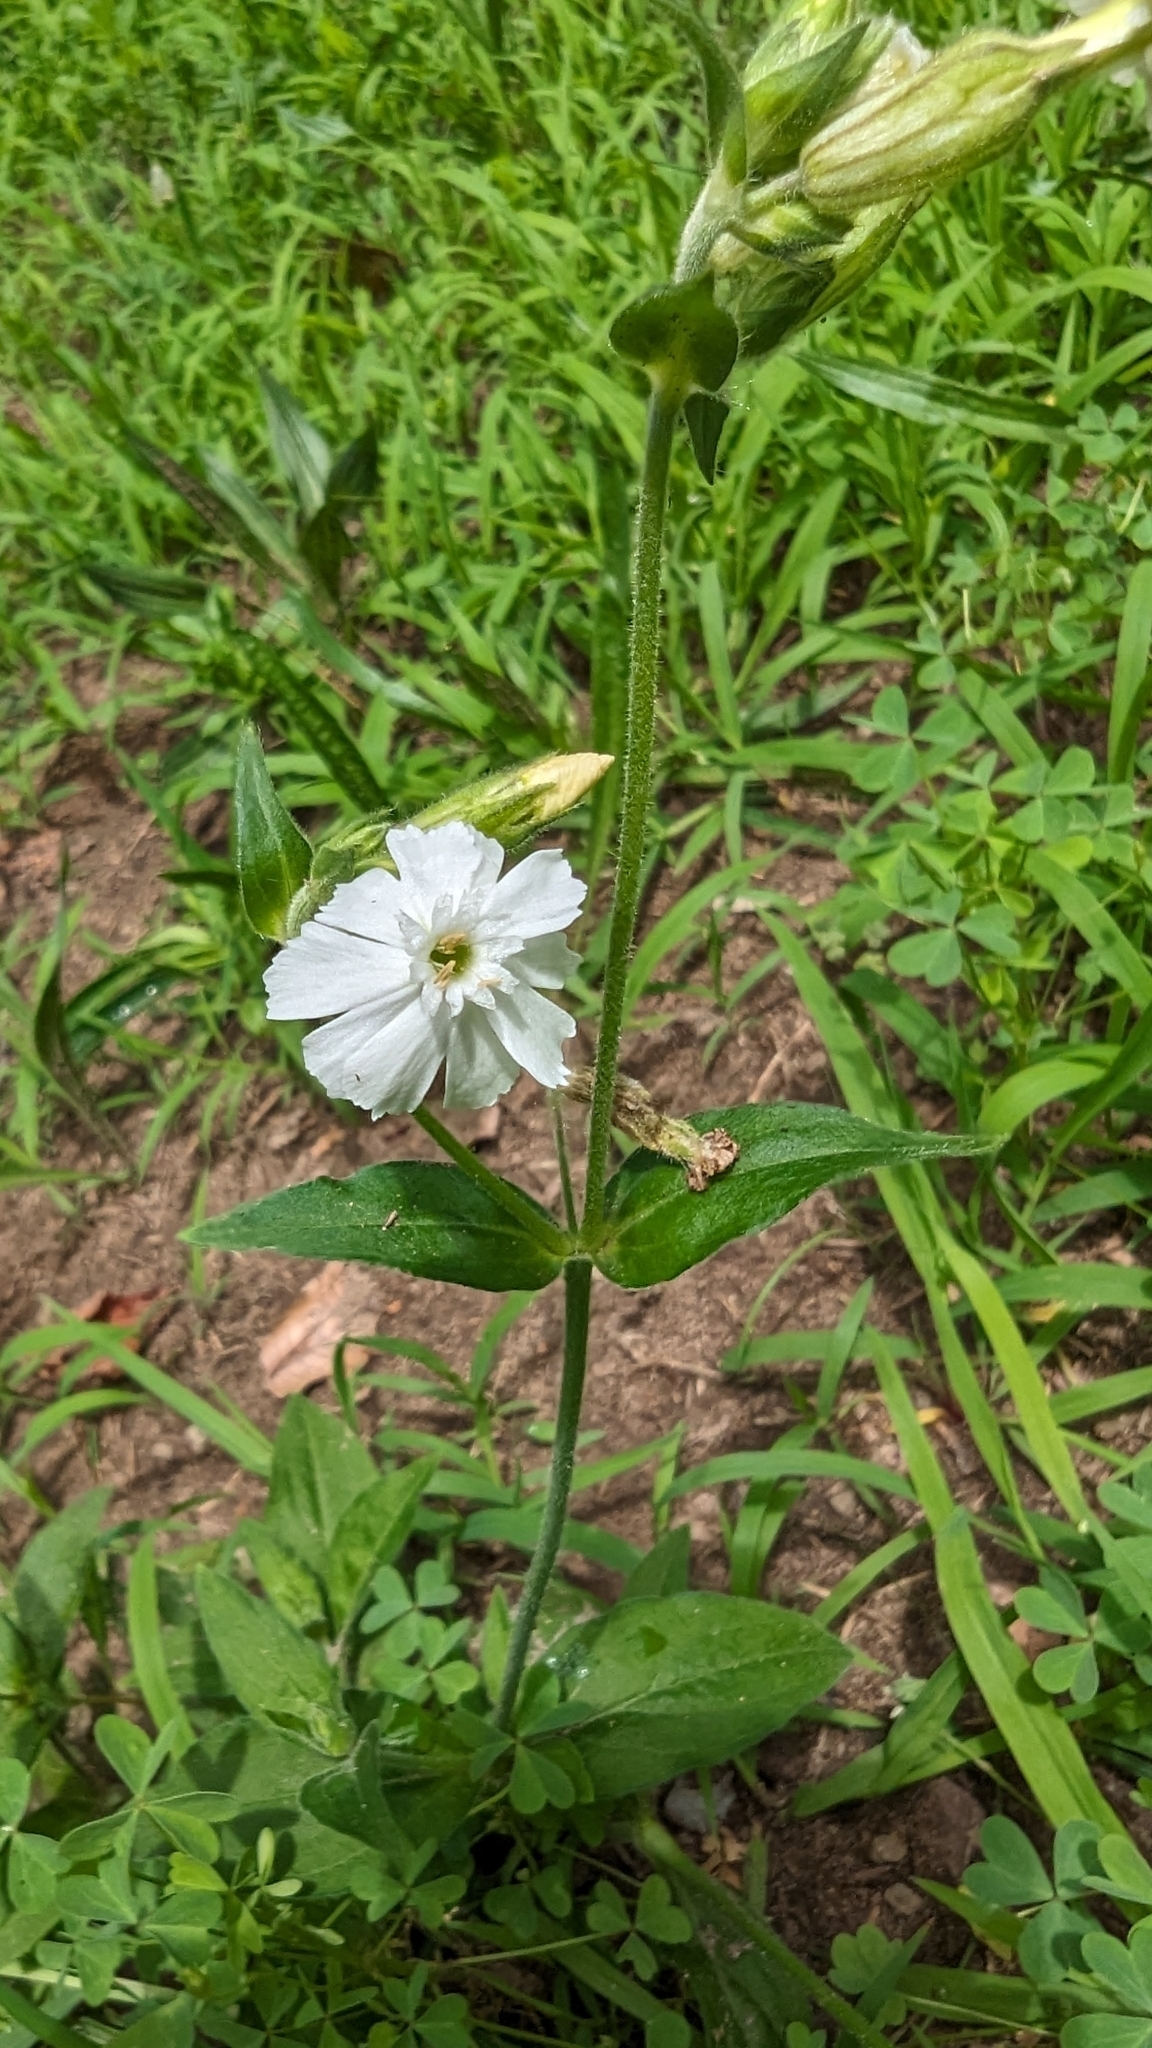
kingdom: Plantae
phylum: Tracheophyta
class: Magnoliopsida
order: Caryophyllales
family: Caryophyllaceae
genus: Silene
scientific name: Silene latifolia
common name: White campion
